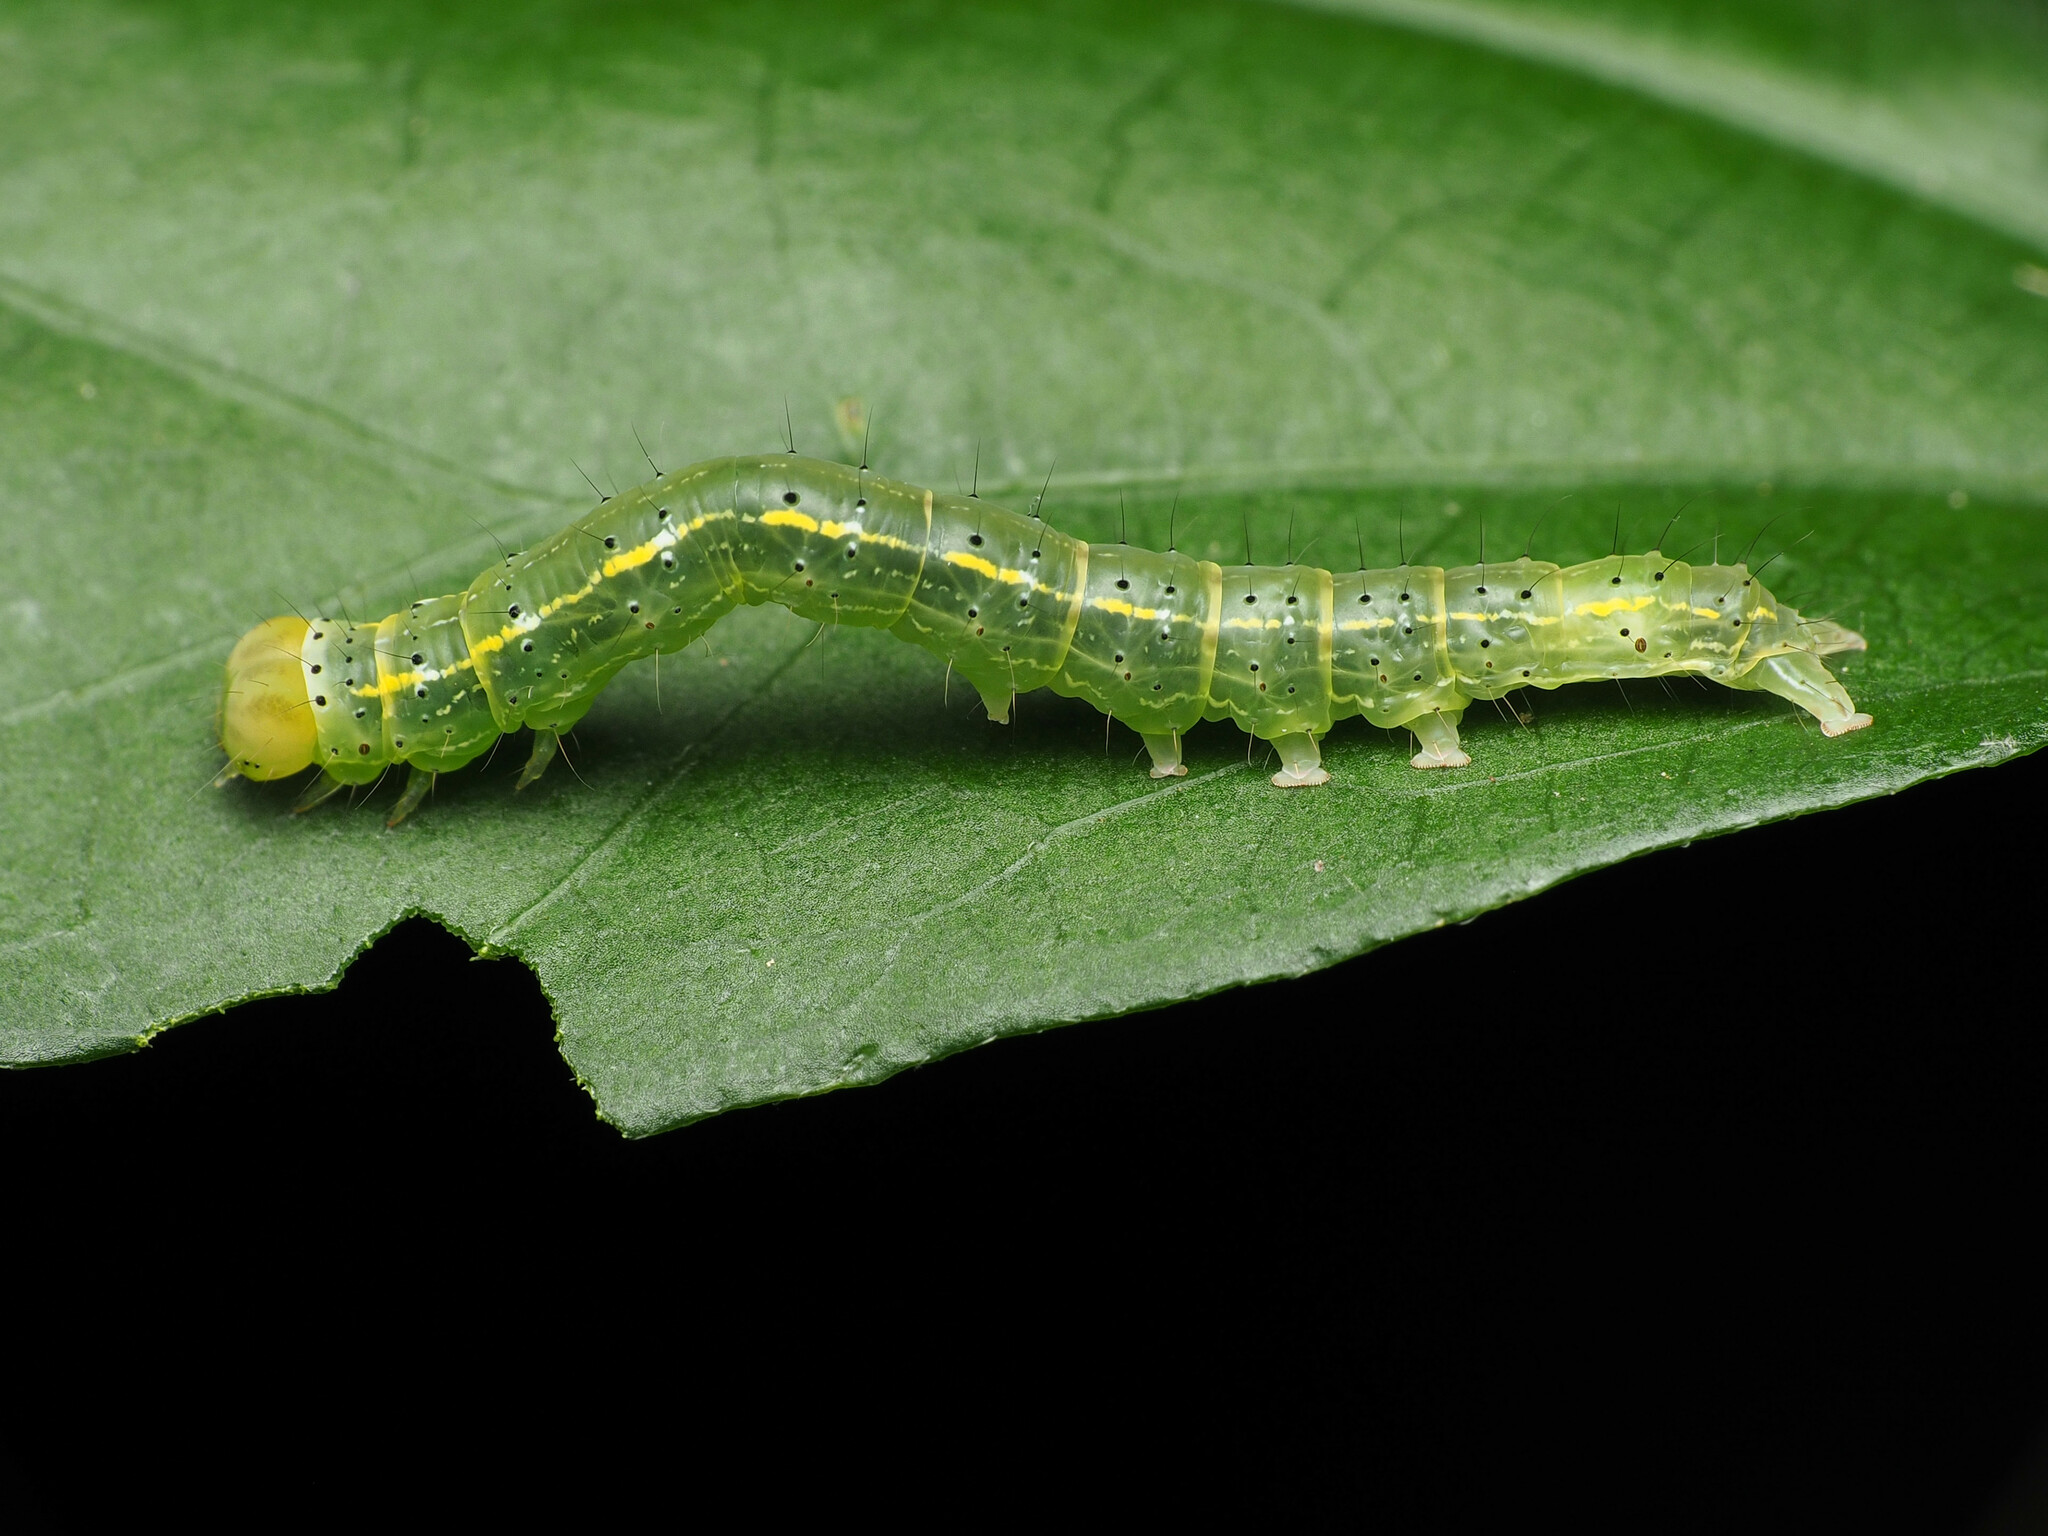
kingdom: Animalia
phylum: Arthropoda
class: Insecta
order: Lepidoptera
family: Erebidae
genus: Rusicada
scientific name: Rusicada privata
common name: Hibiscus leaf caterpillar moth
